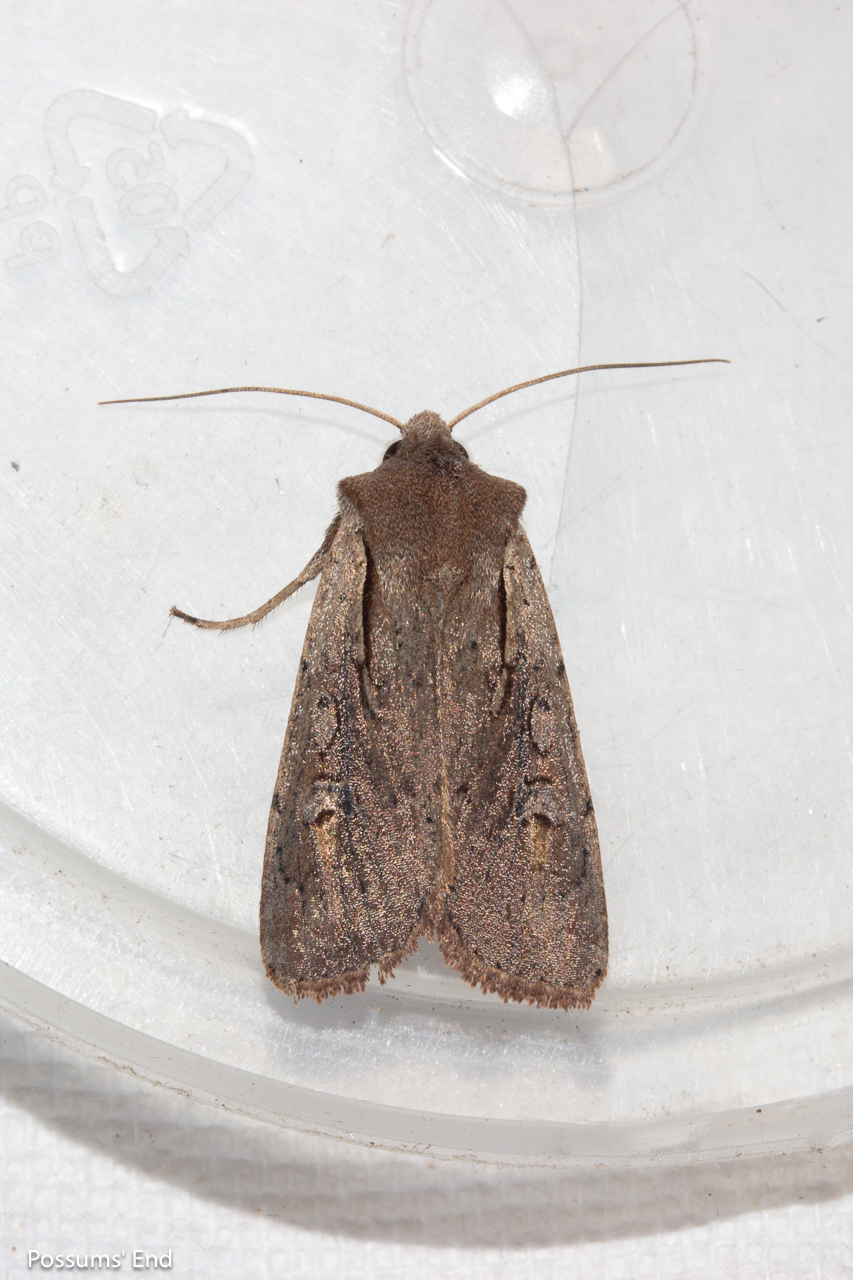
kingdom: Animalia
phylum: Arthropoda
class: Insecta
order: Lepidoptera
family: Noctuidae
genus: Ichneutica
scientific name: Ichneutica atristriga
